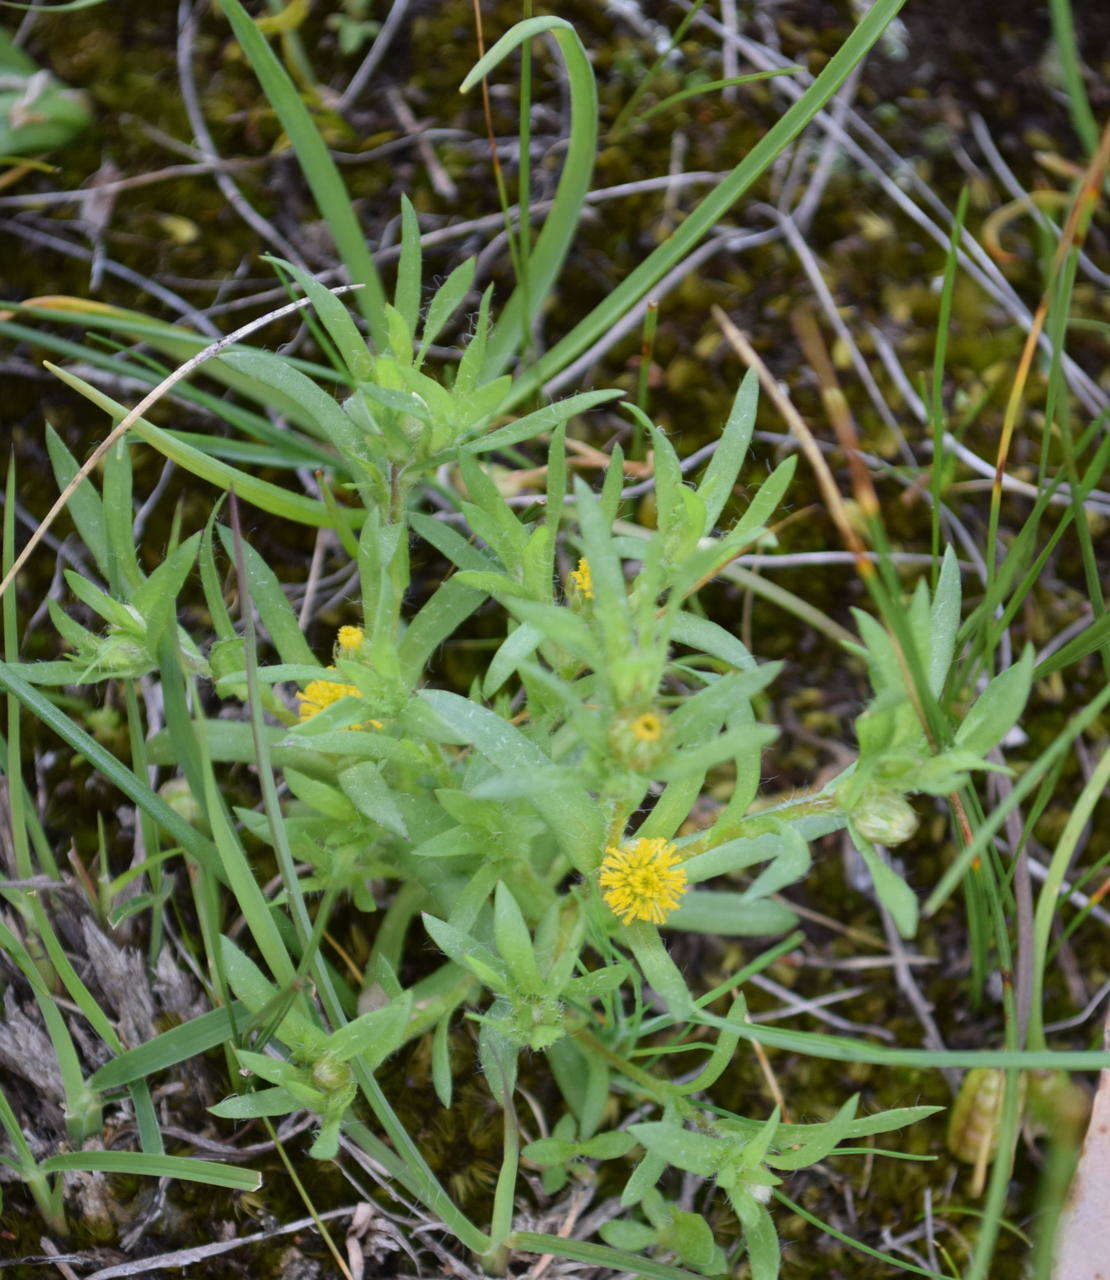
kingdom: Plantae
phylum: Tracheophyta
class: Magnoliopsida
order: Asterales
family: Asteraceae
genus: Triptilodiscus
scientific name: Triptilodiscus pygmaeus
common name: Common sunray
